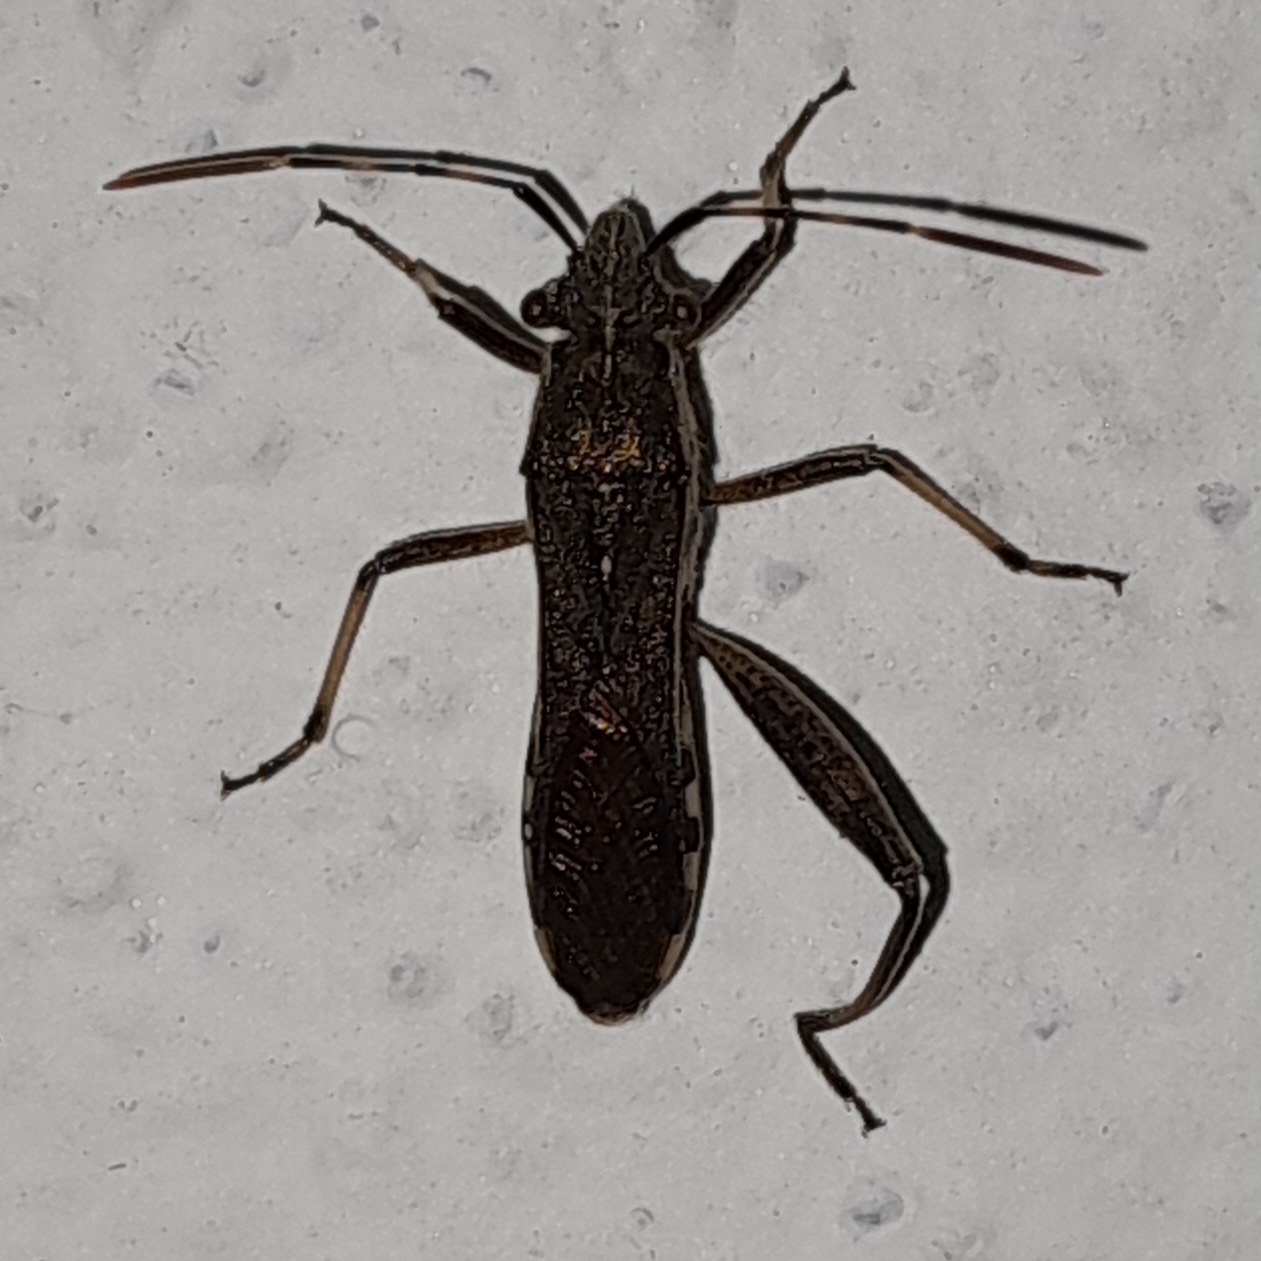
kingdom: Animalia
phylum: Arthropoda
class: Insecta
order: Hemiptera
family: Alydidae
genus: Camptopus
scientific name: Camptopus lateralis
